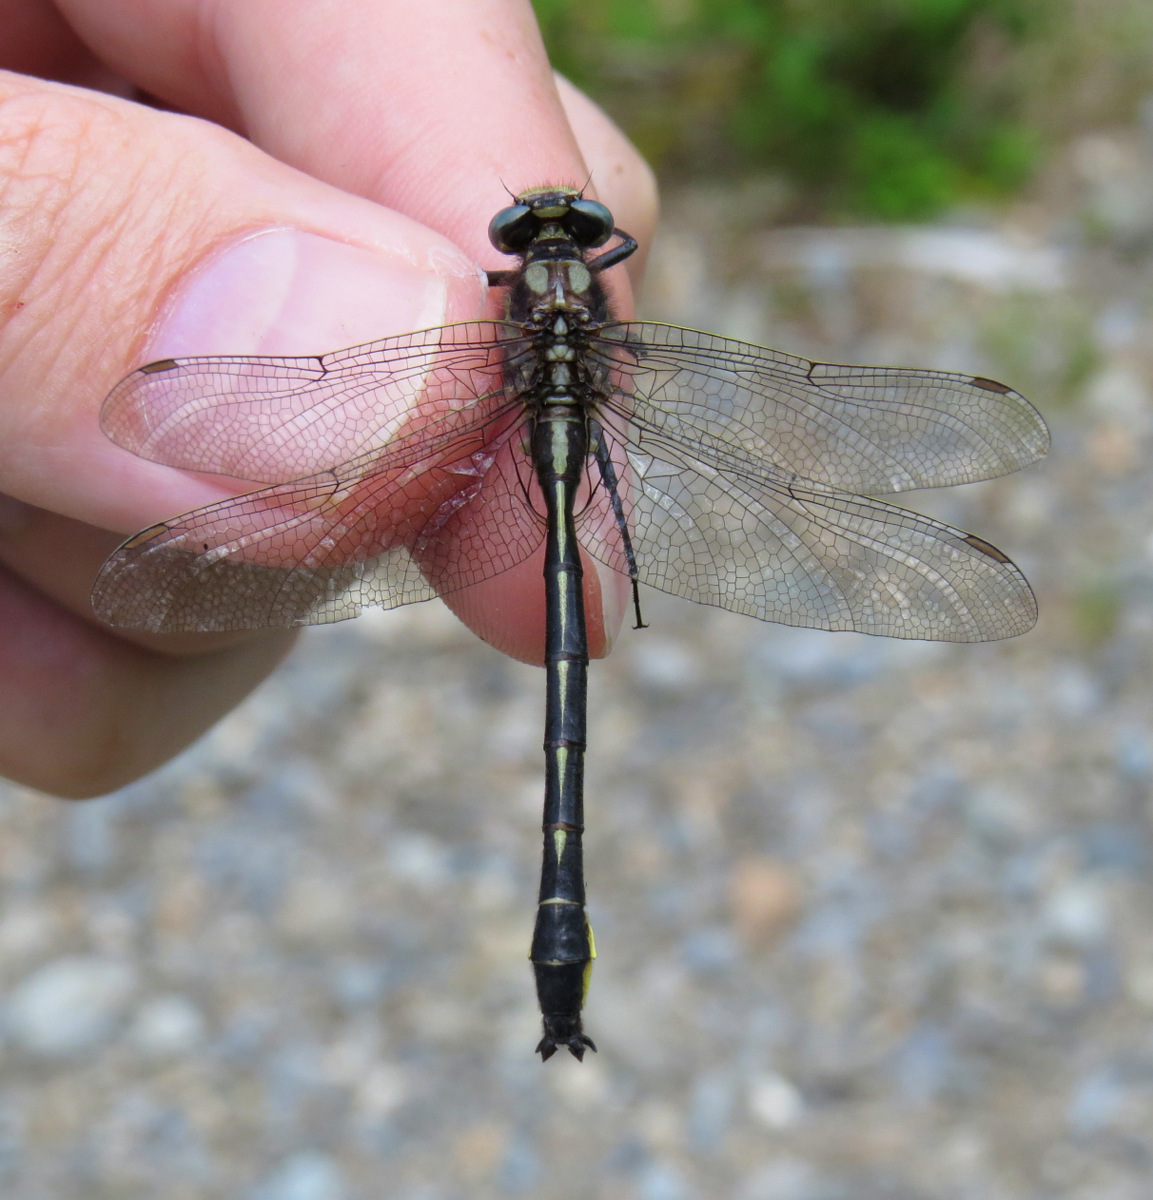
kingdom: Animalia
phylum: Arthropoda
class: Insecta
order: Odonata
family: Gomphidae
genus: Phanogomphus
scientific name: Phanogomphus borealis
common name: Beaverpond clubtail
